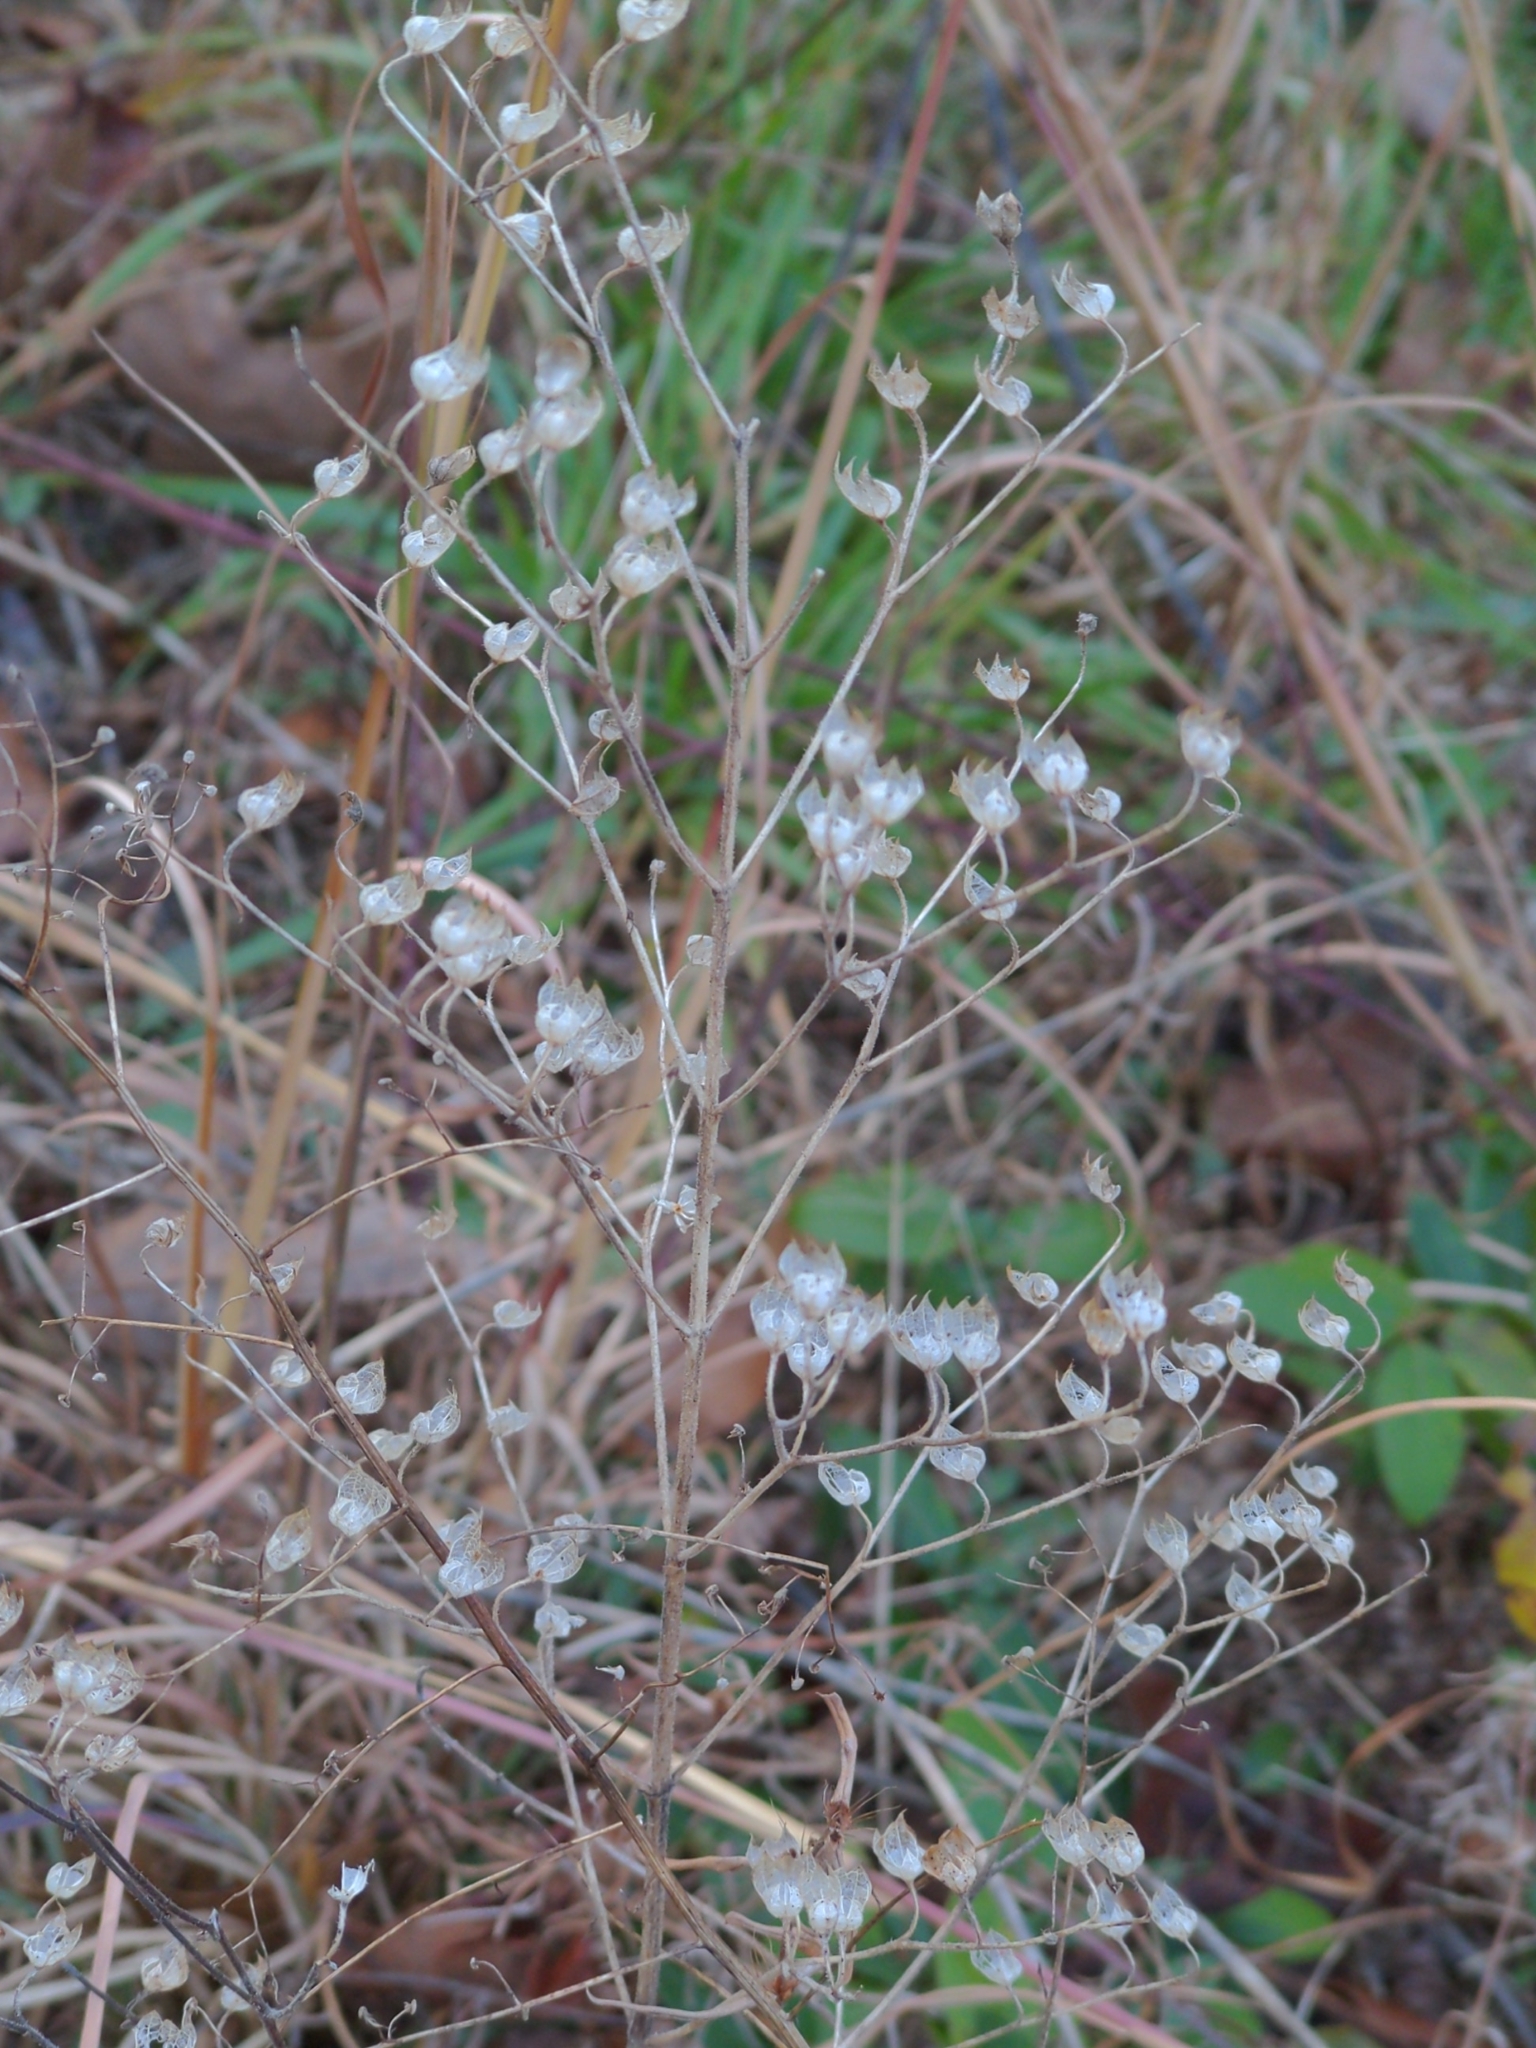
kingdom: Plantae
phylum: Tracheophyta
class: Magnoliopsida
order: Lamiales
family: Lamiaceae
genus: Trichostema
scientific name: Trichostema dichotomum
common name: Bastard pennyroyal
